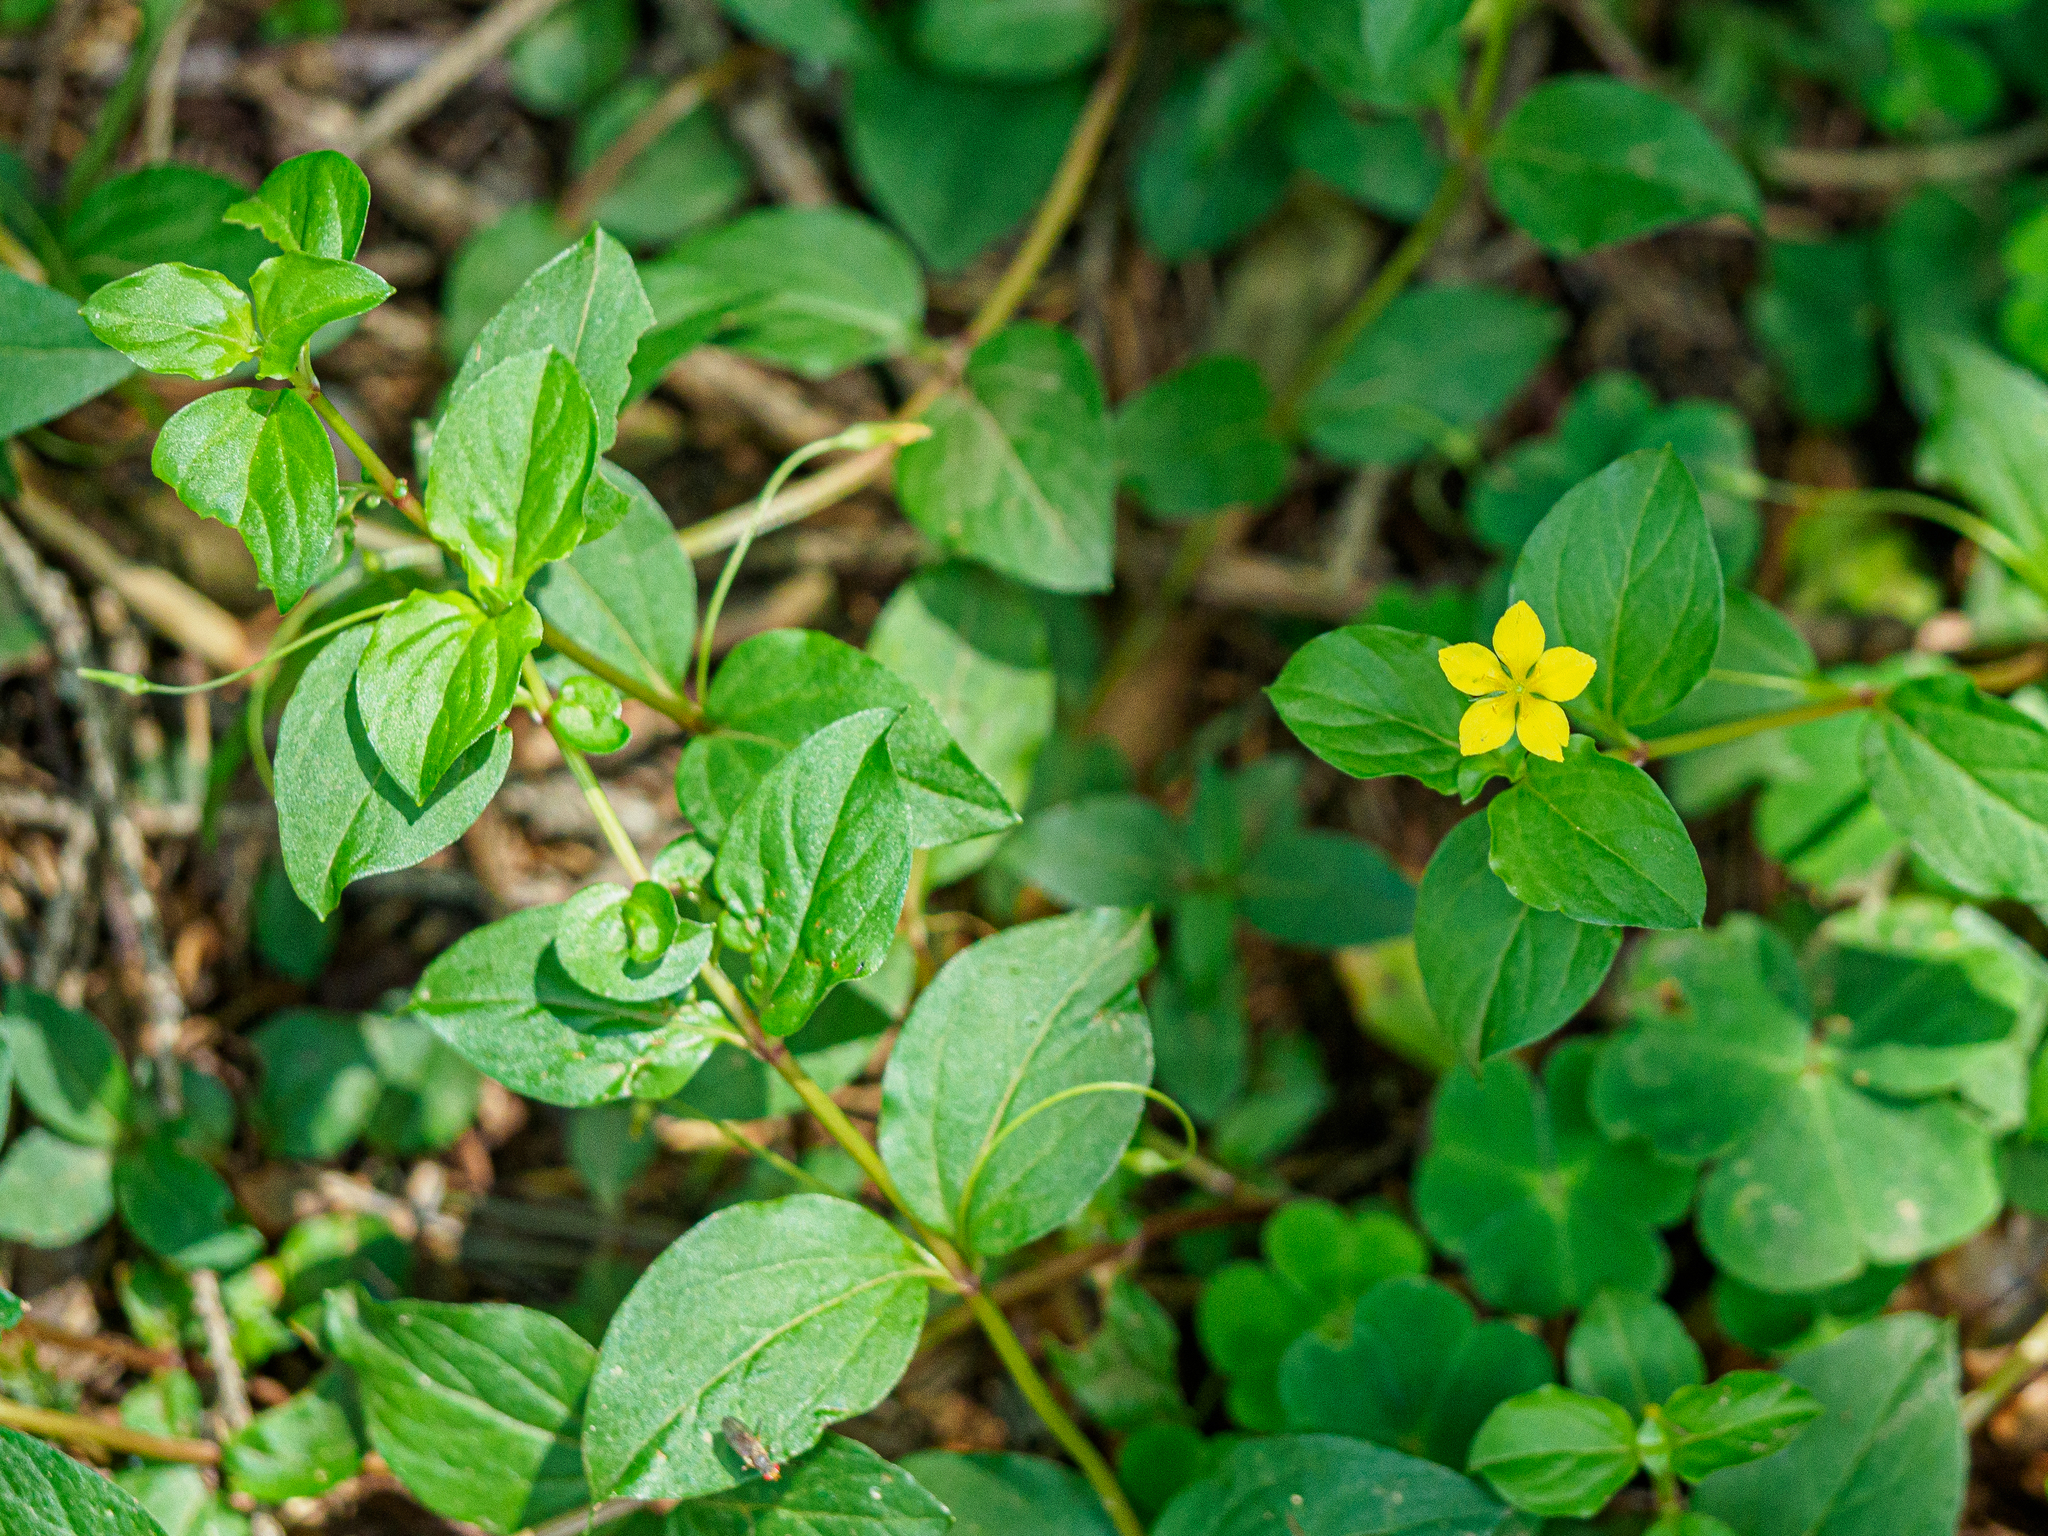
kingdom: Plantae
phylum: Tracheophyta
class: Magnoliopsida
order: Ericales
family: Primulaceae
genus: Lysimachia
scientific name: Lysimachia nemorum
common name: Yellow pimpernel
